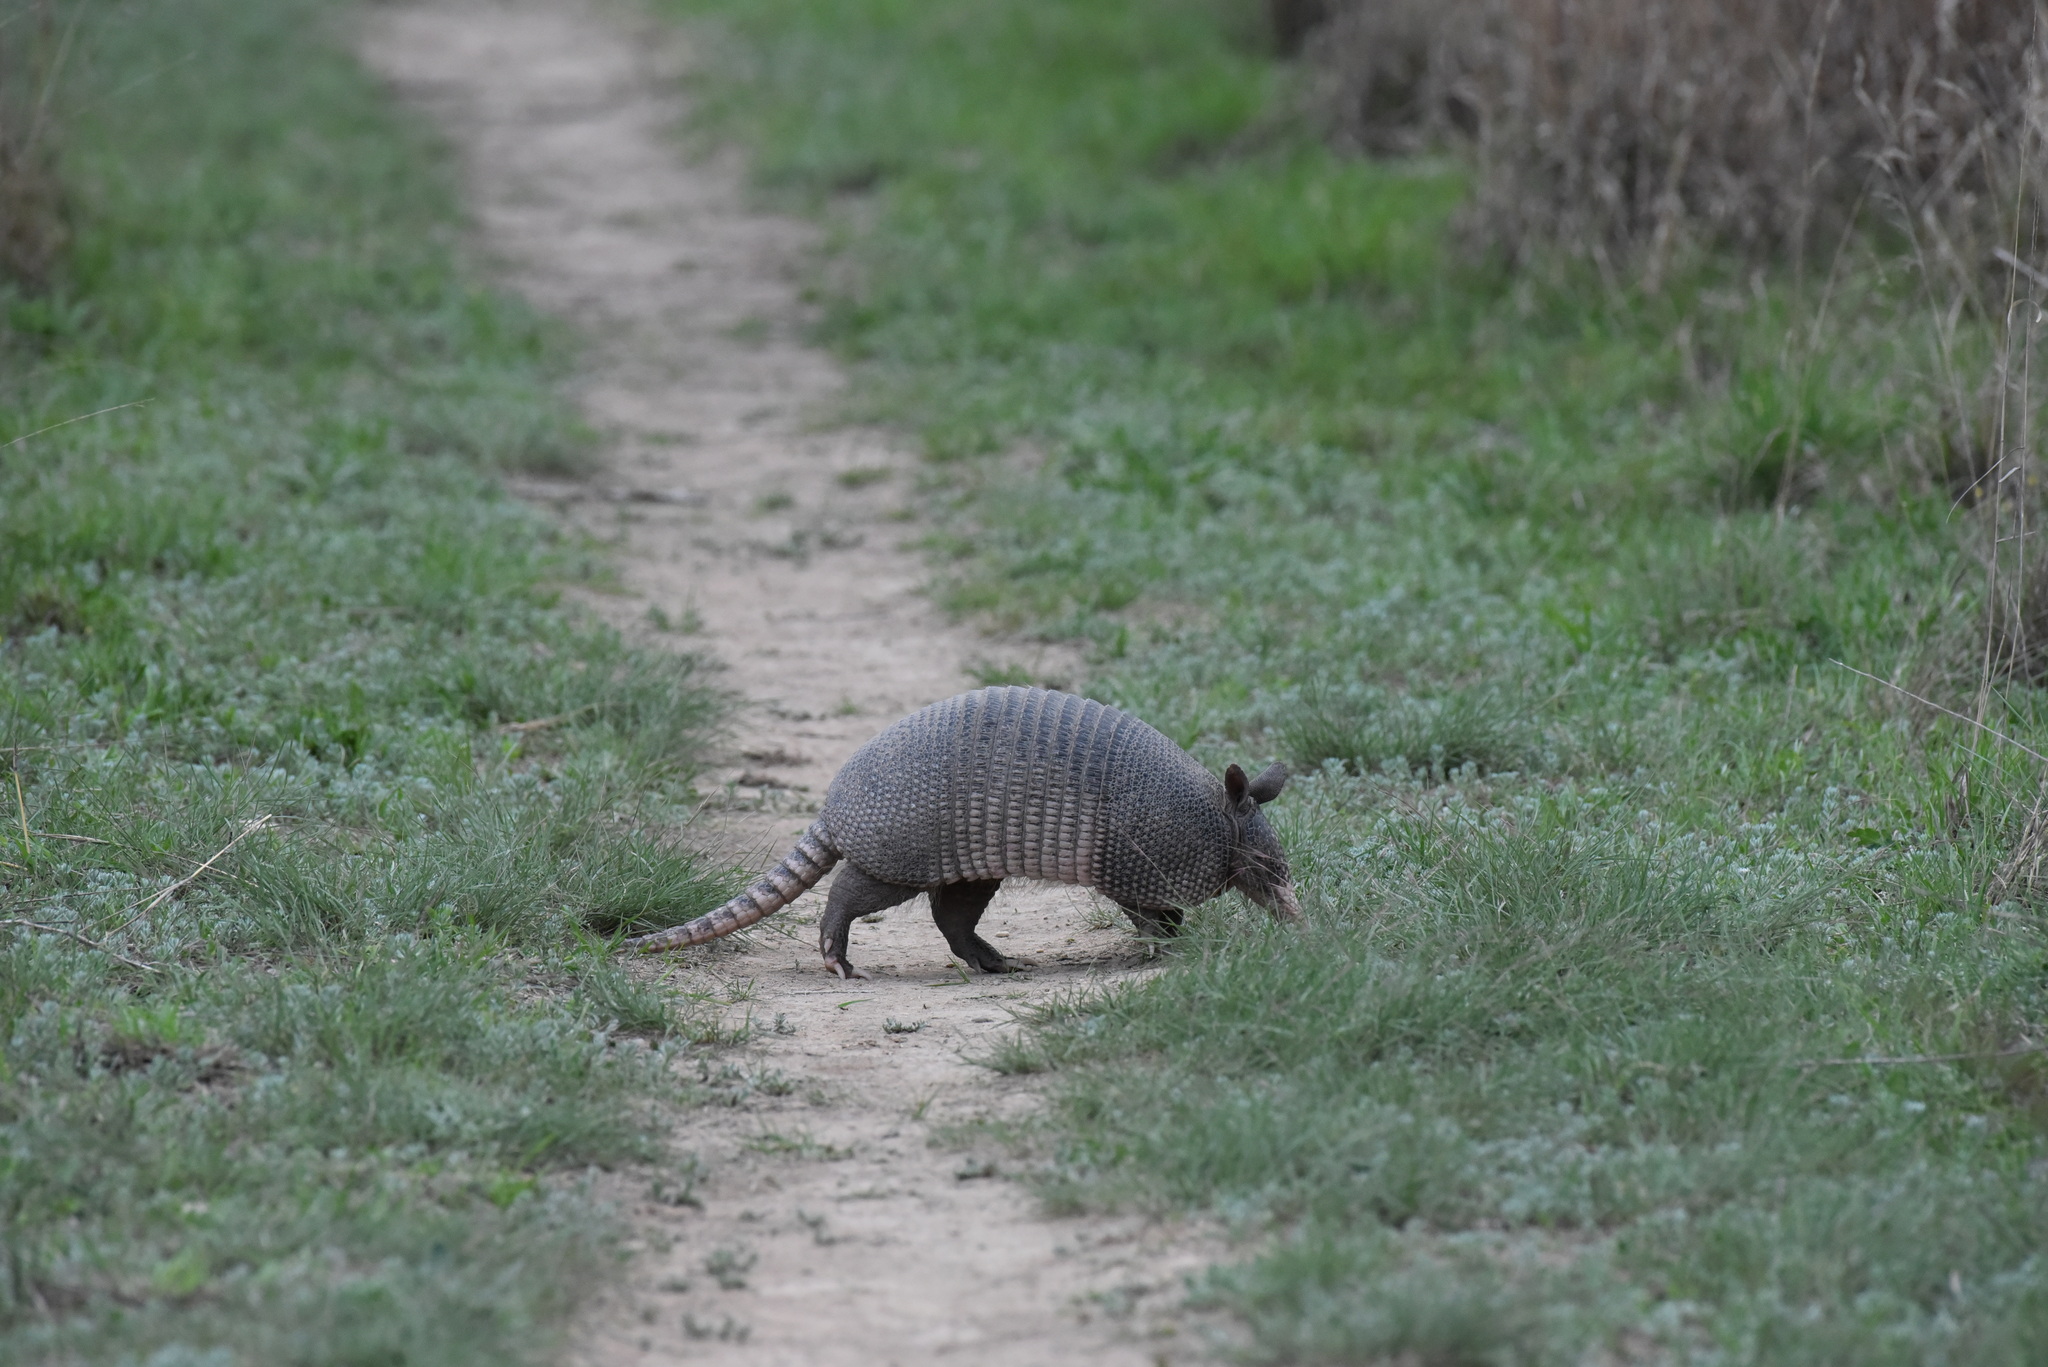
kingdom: Animalia
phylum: Chordata
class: Mammalia
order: Cingulata
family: Dasypodidae
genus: Dasypus
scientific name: Dasypus novemcinctus
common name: Nine-banded armadillo
